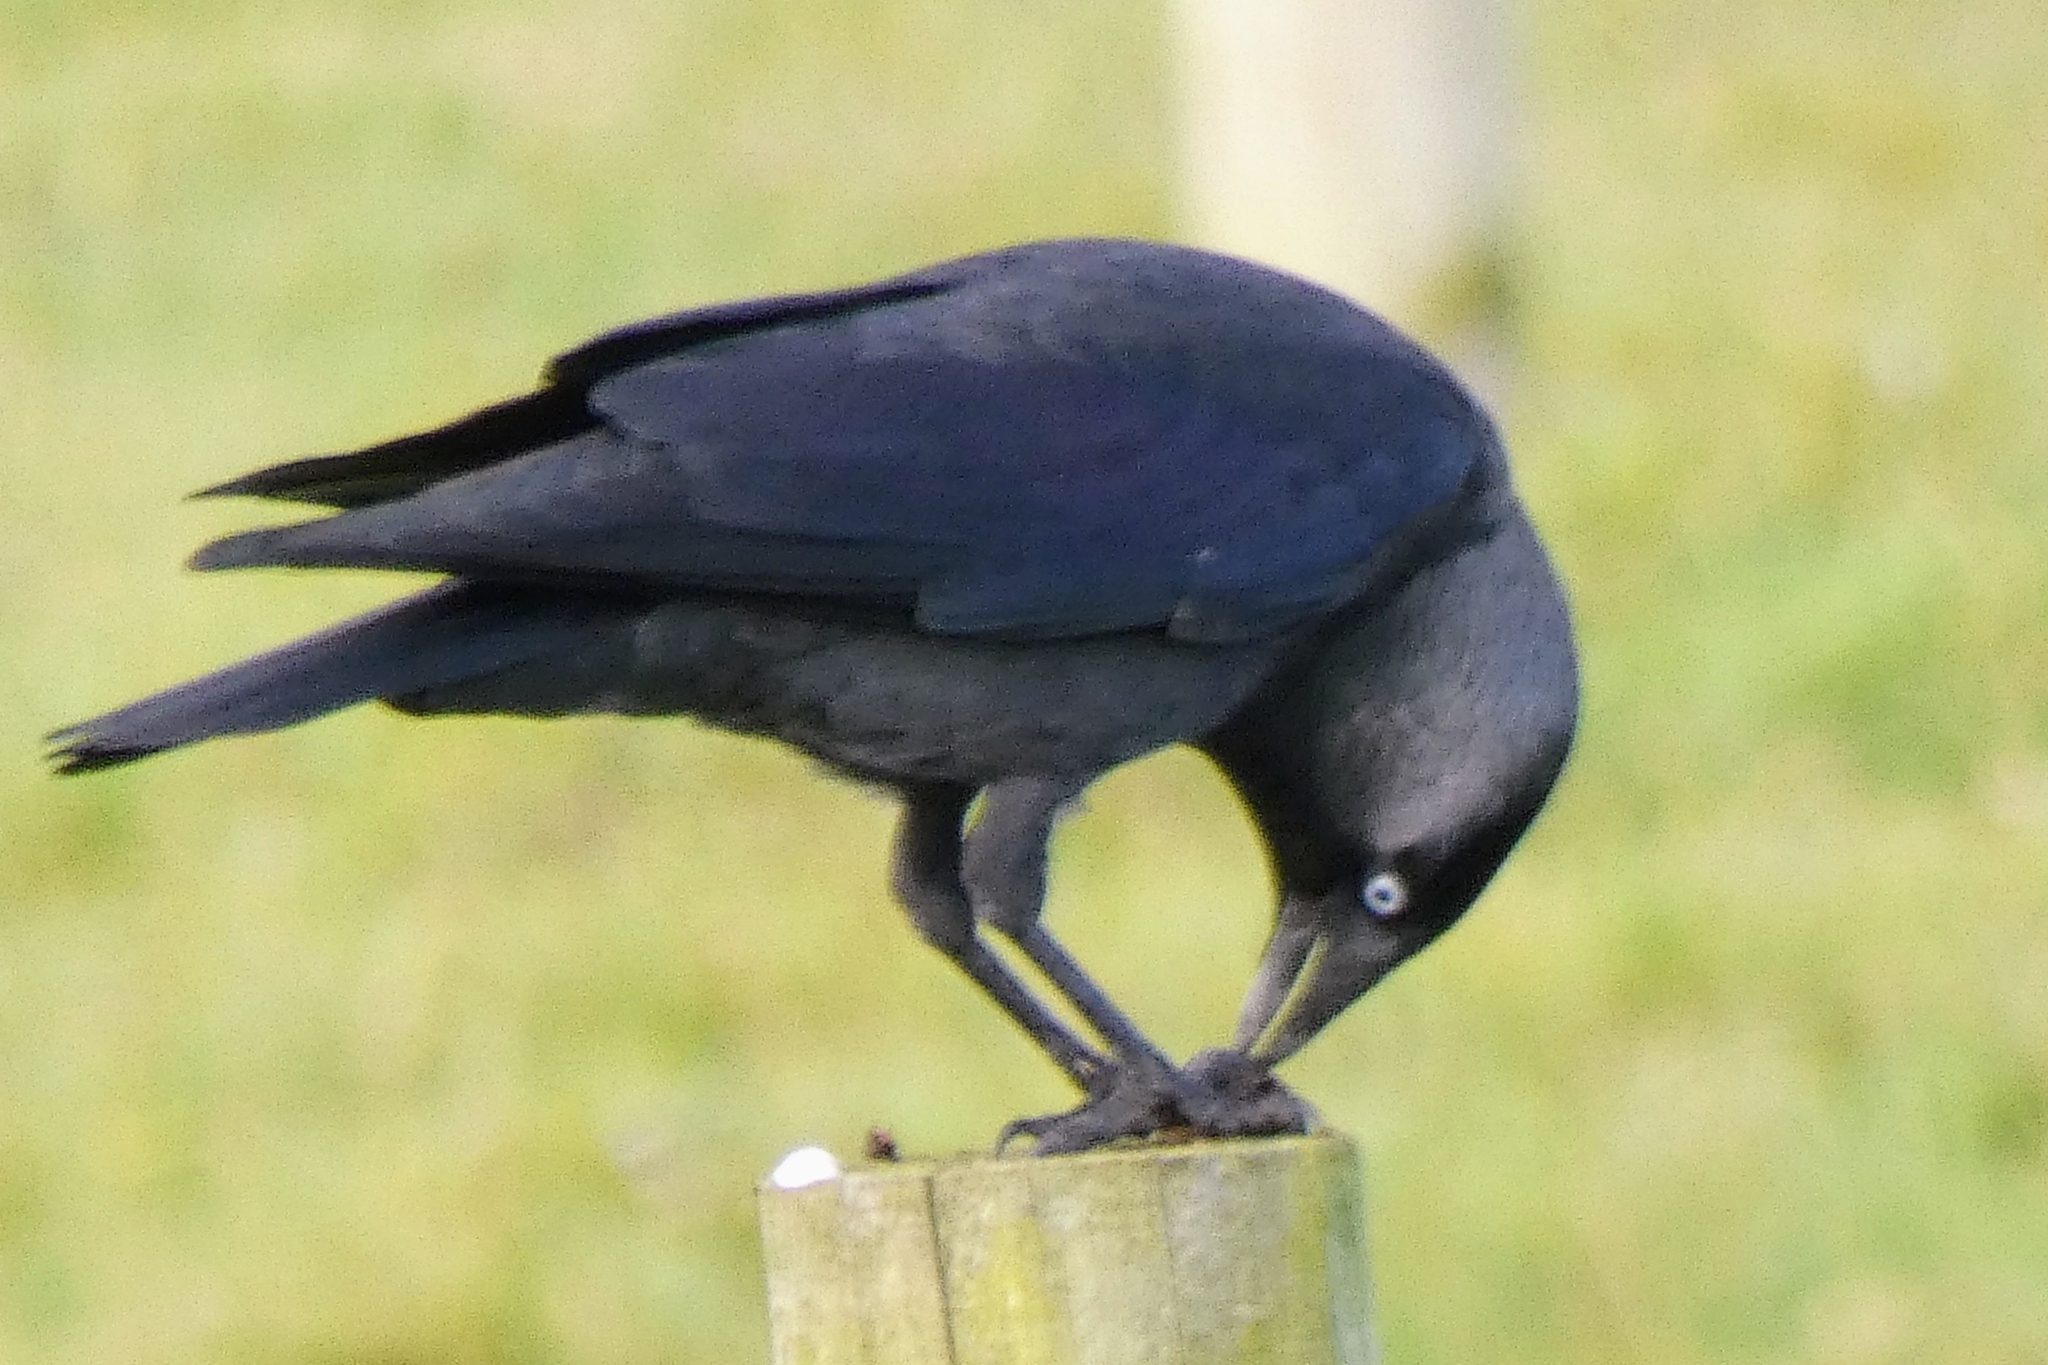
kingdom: Animalia
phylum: Chordata
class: Aves
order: Passeriformes
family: Corvidae
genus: Coloeus
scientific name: Coloeus monedula
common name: Western jackdaw
